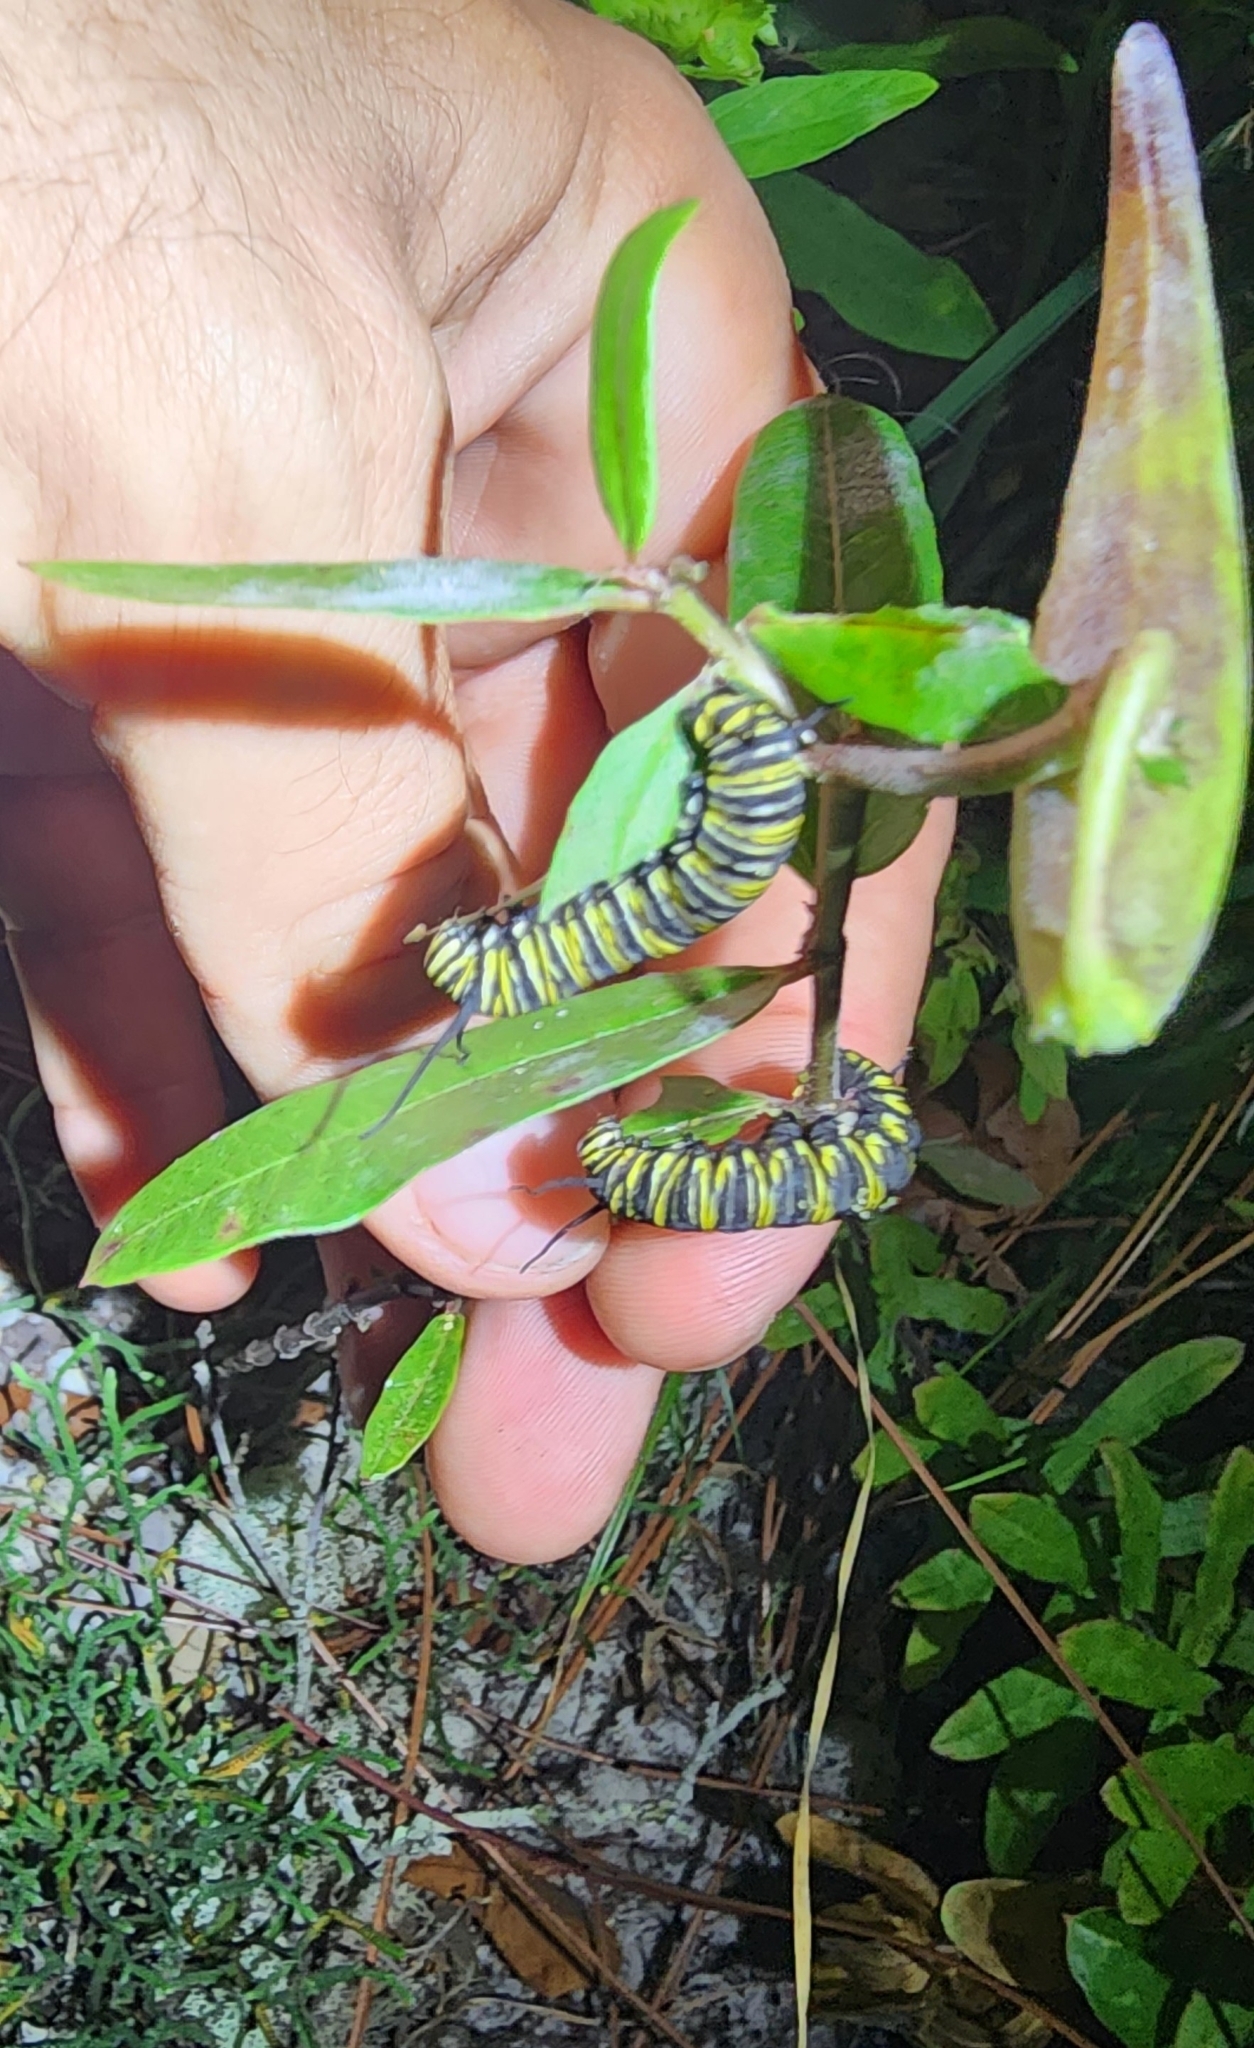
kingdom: Animalia
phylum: Arthropoda
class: Insecta
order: Lepidoptera
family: Nymphalidae
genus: Danaus
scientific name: Danaus plexippus
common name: Monarch
